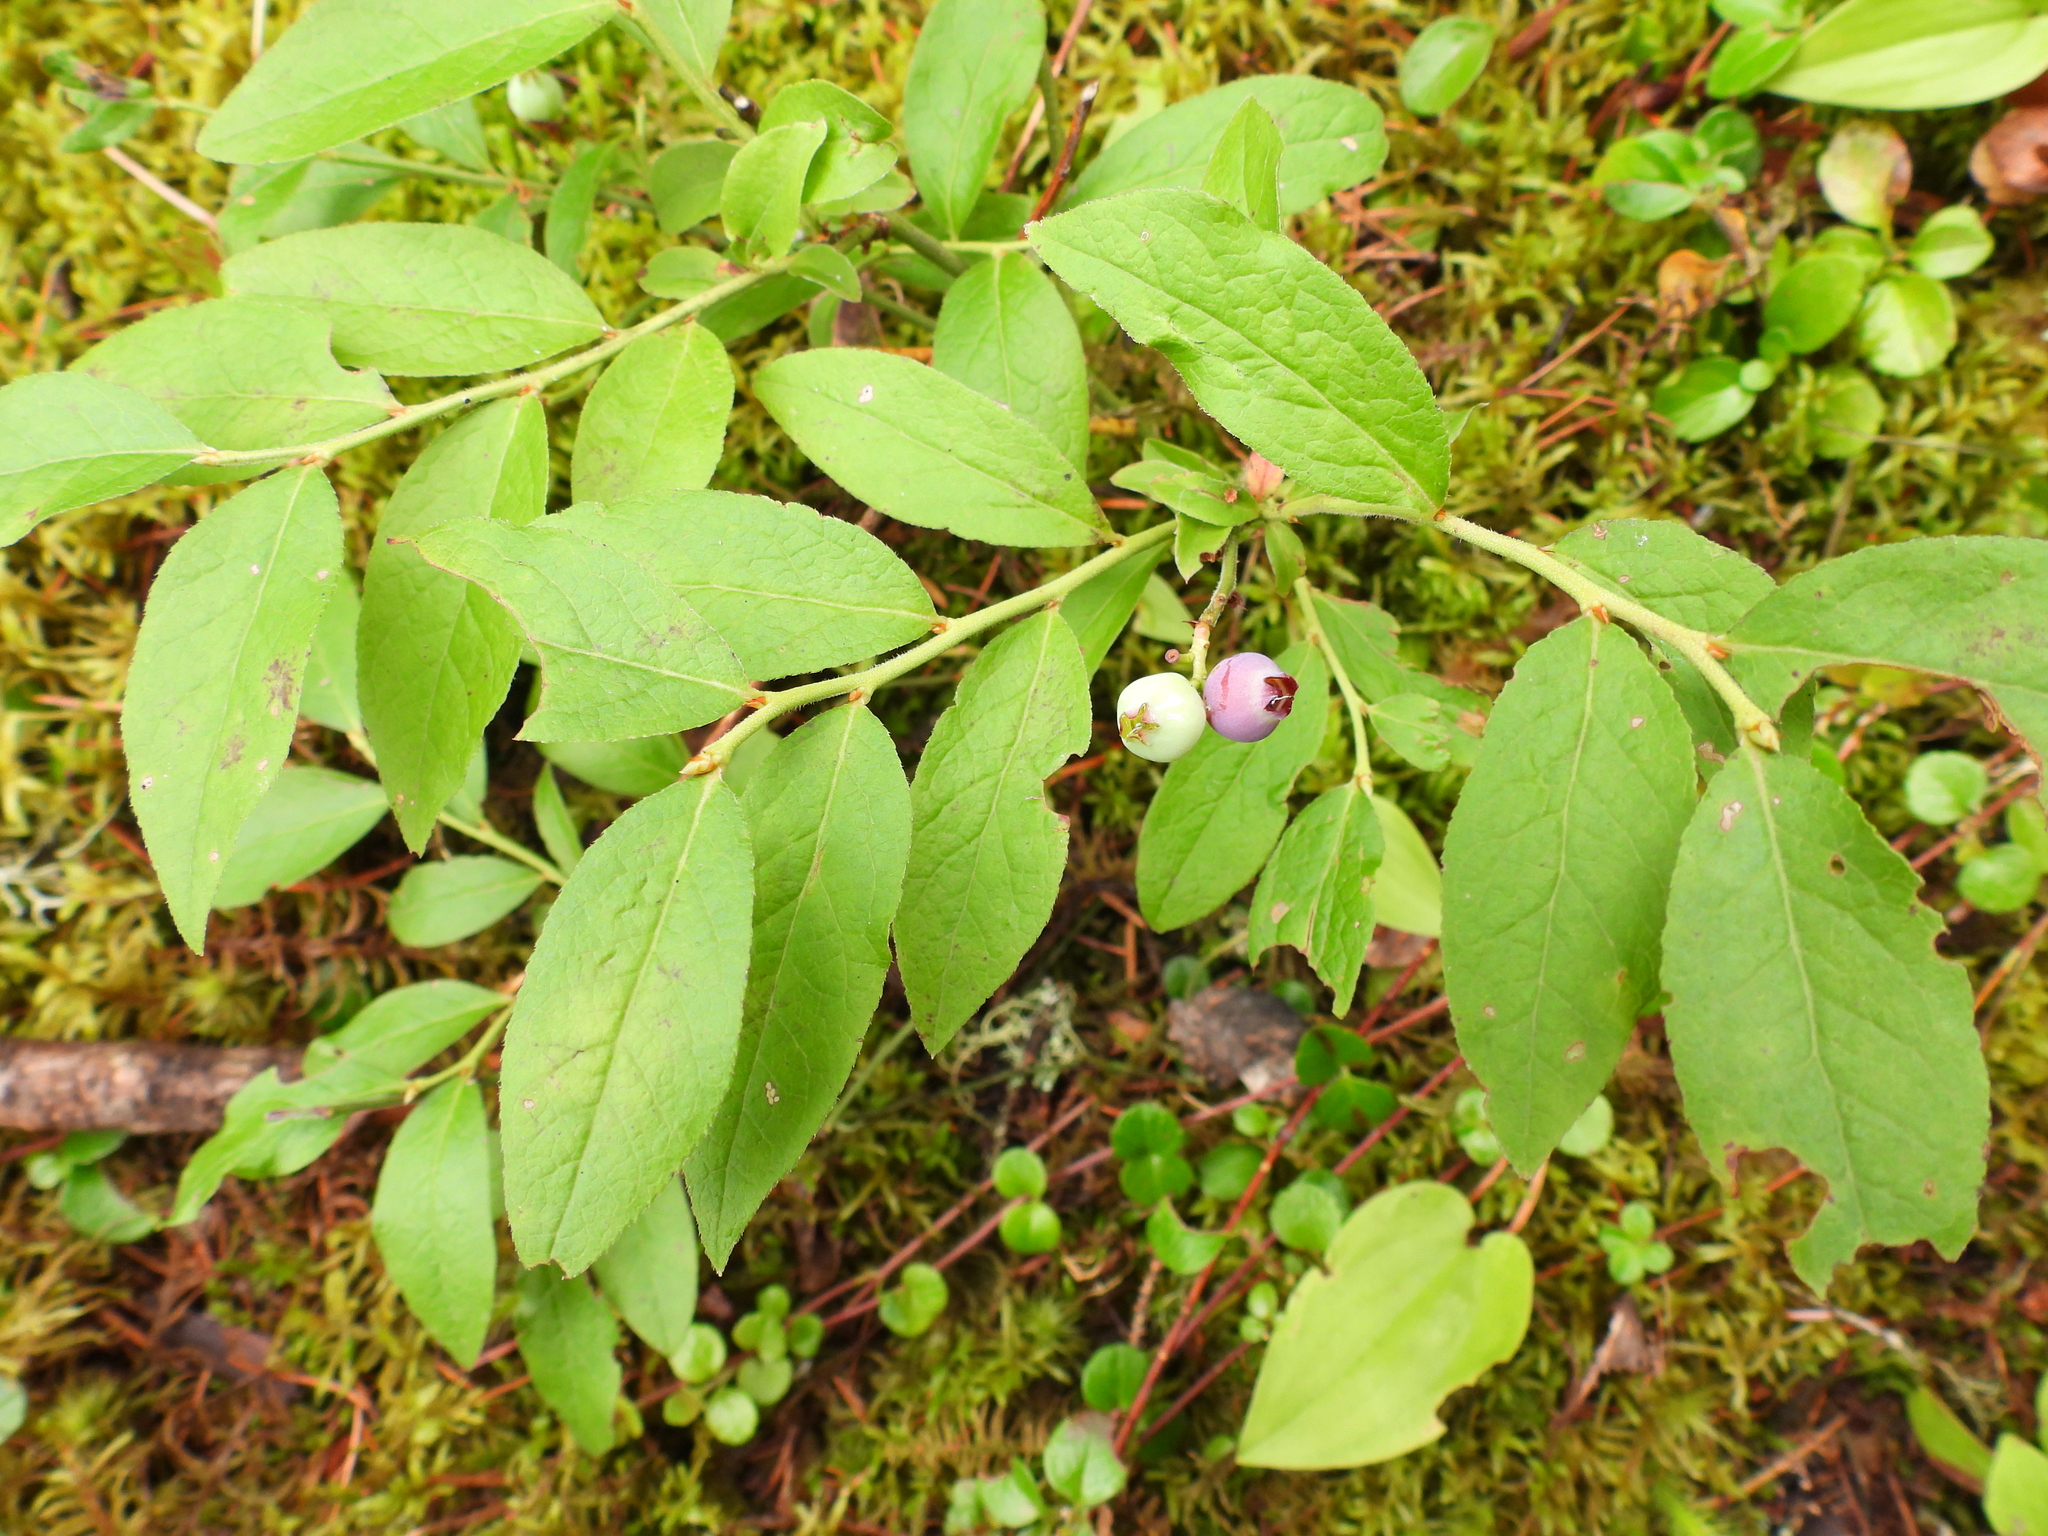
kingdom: Plantae
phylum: Tracheophyta
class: Magnoliopsida
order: Ericales
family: Ericaceae
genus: Vaccinium
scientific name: Vaccinium angustifolium
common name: Early lowbush blueberry
